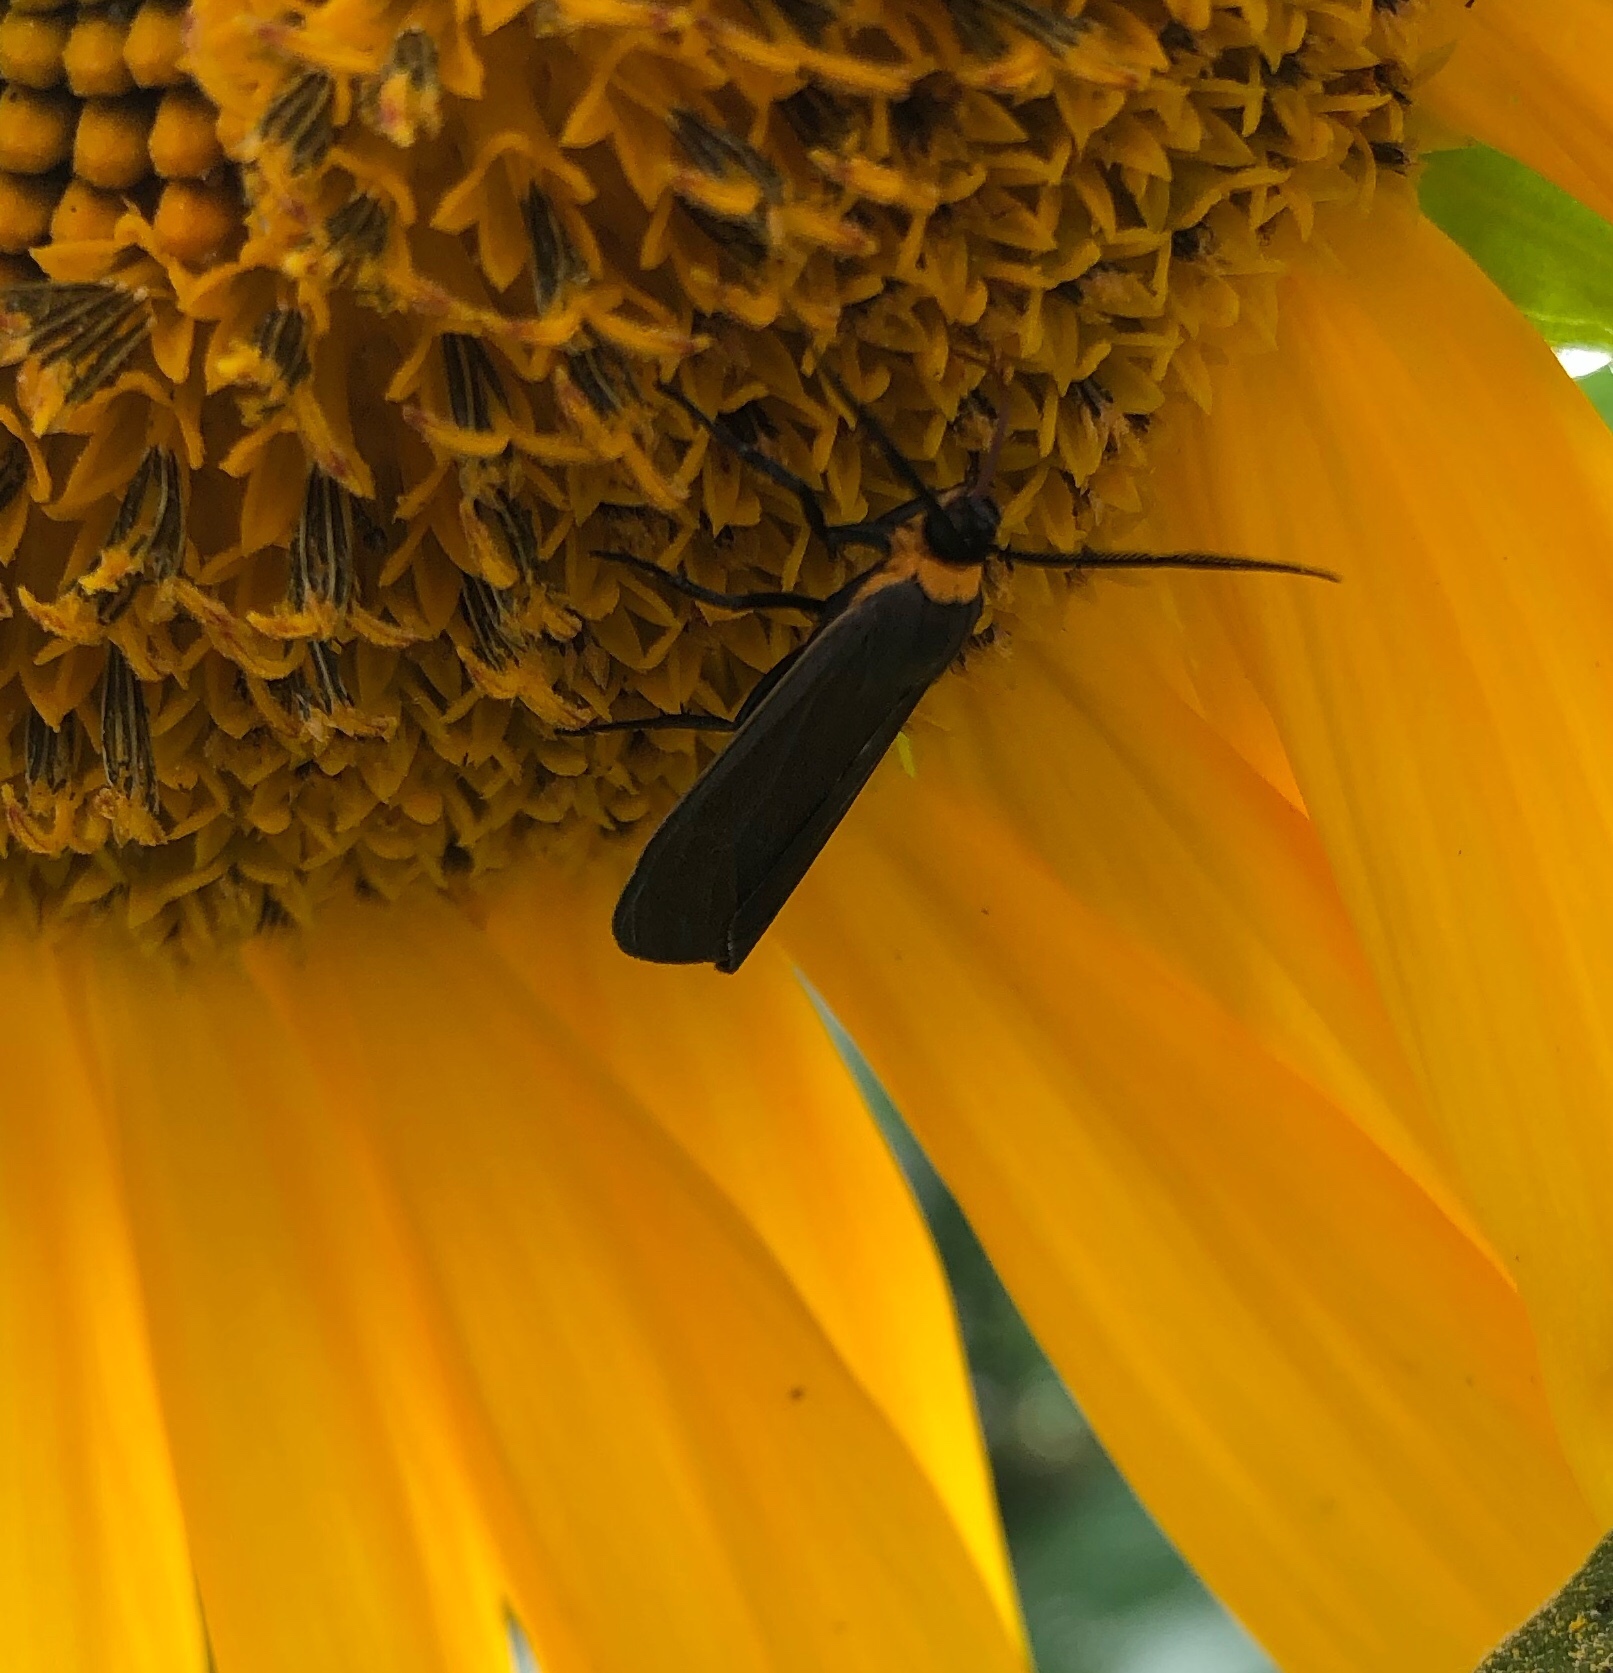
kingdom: Animalia
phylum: Arthropoda
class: Insecta
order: Lepidoptera
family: Erebidae
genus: Cisseps
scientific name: Cisseps fulvicollis
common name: Yellow-collared scape moth
